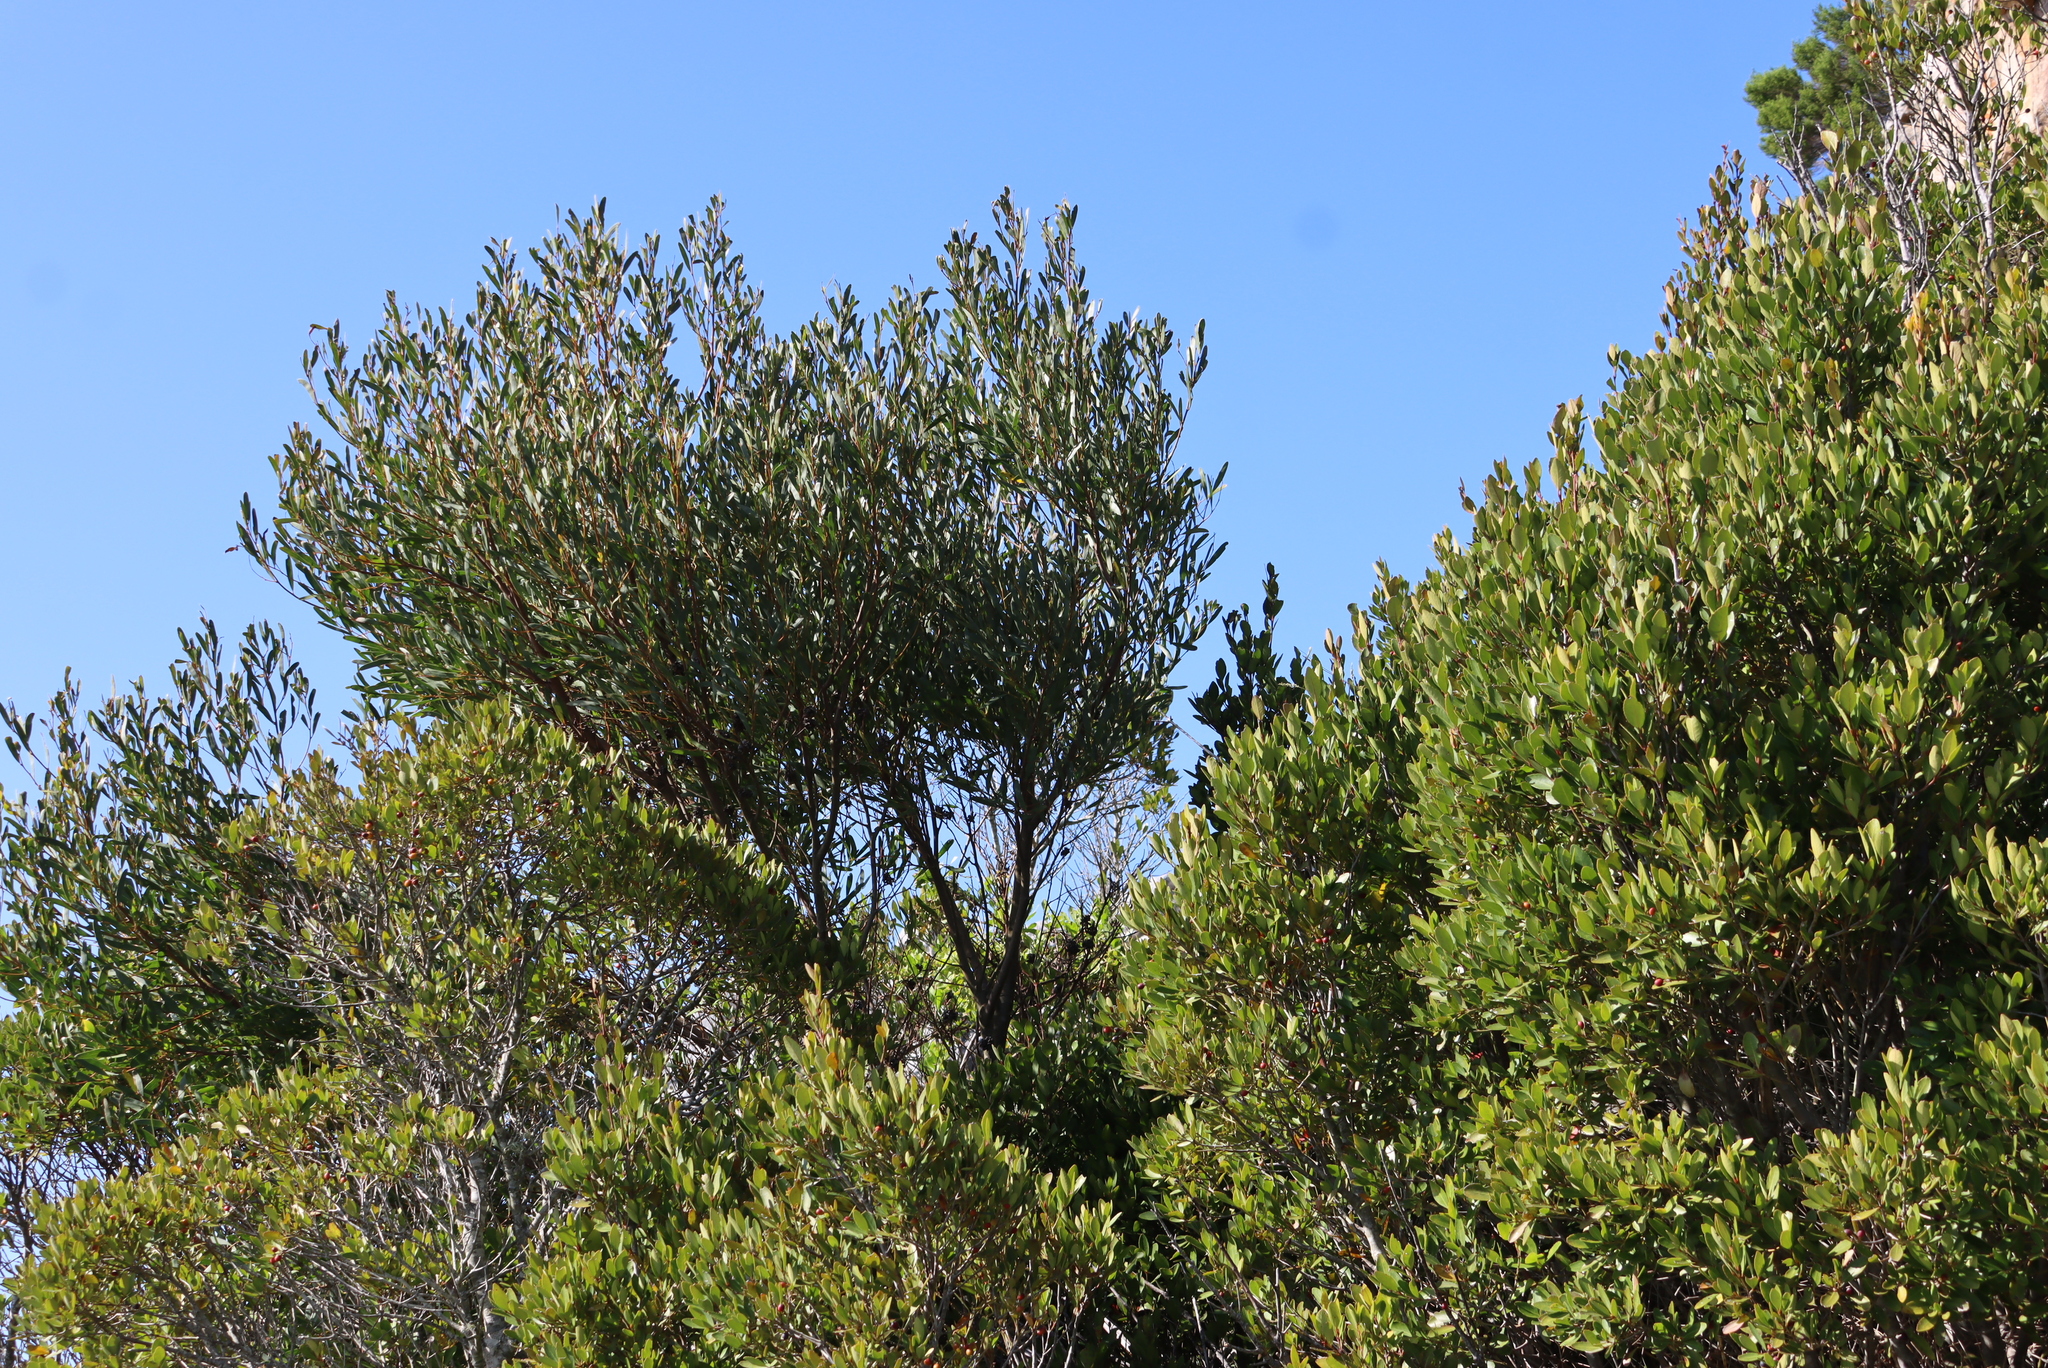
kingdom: Plantae
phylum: Tracheophyta
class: Magnoliopsida
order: Fabales
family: Fabaceae
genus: Acacia
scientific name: Acacia cyclops
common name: Coastal wattle
